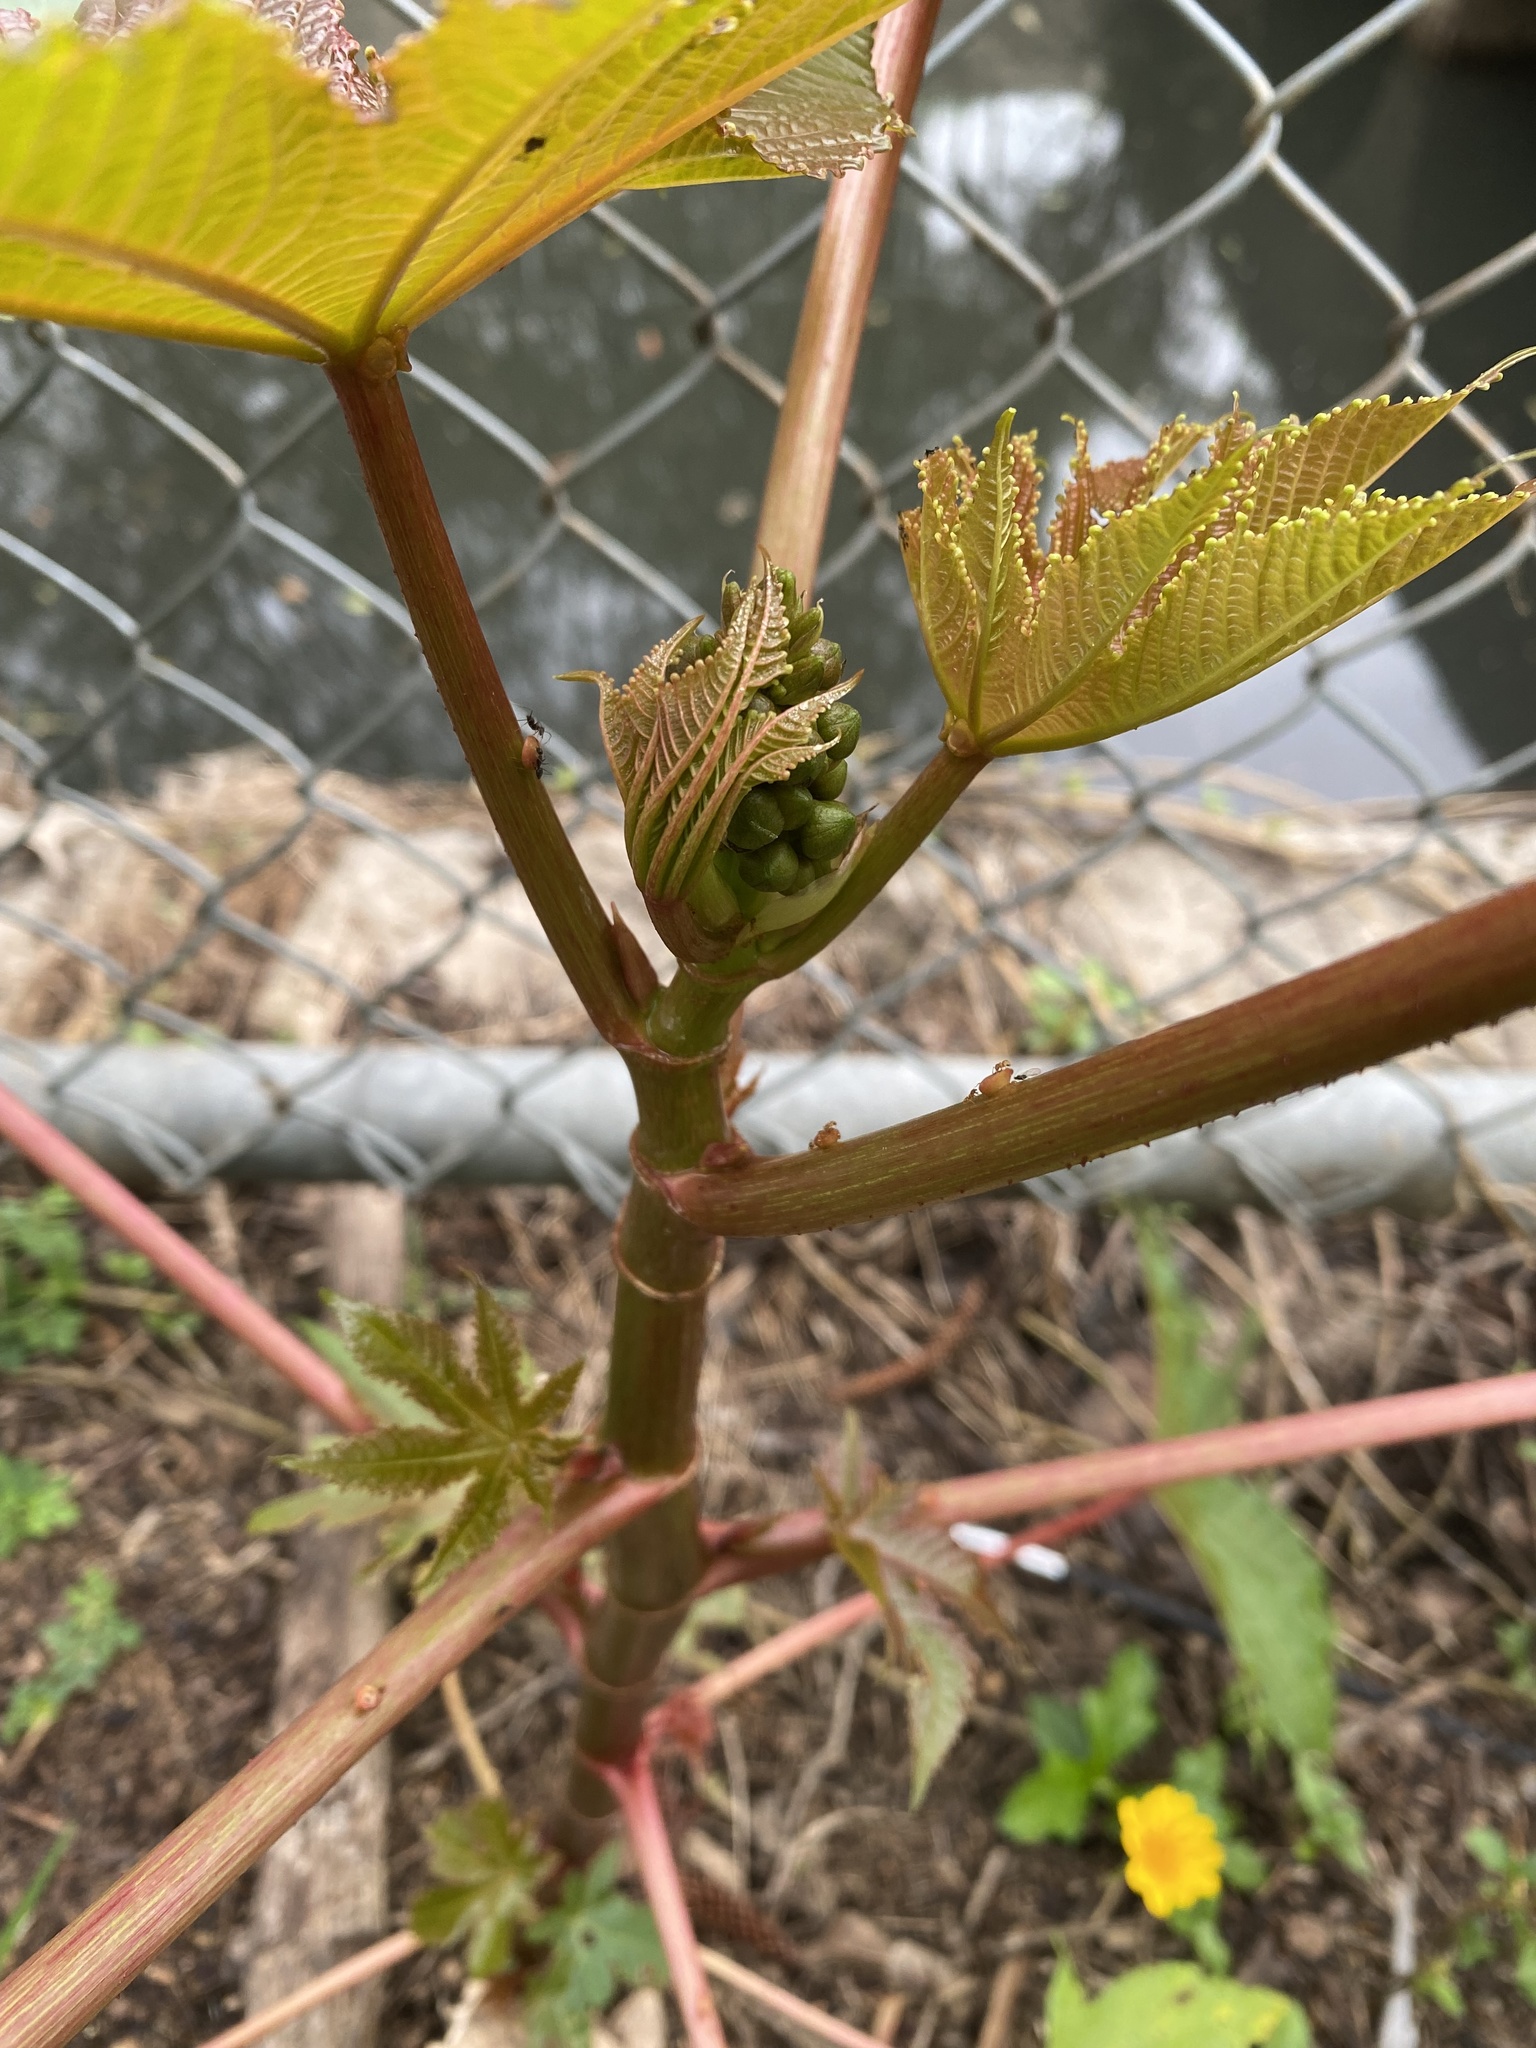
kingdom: Plantae
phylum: Tracheophyta
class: Magnoliopsida
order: Malpighiales
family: Euphorbiaceae
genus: Ricinus
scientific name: Ricinus communis
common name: Castor-oil-plant
